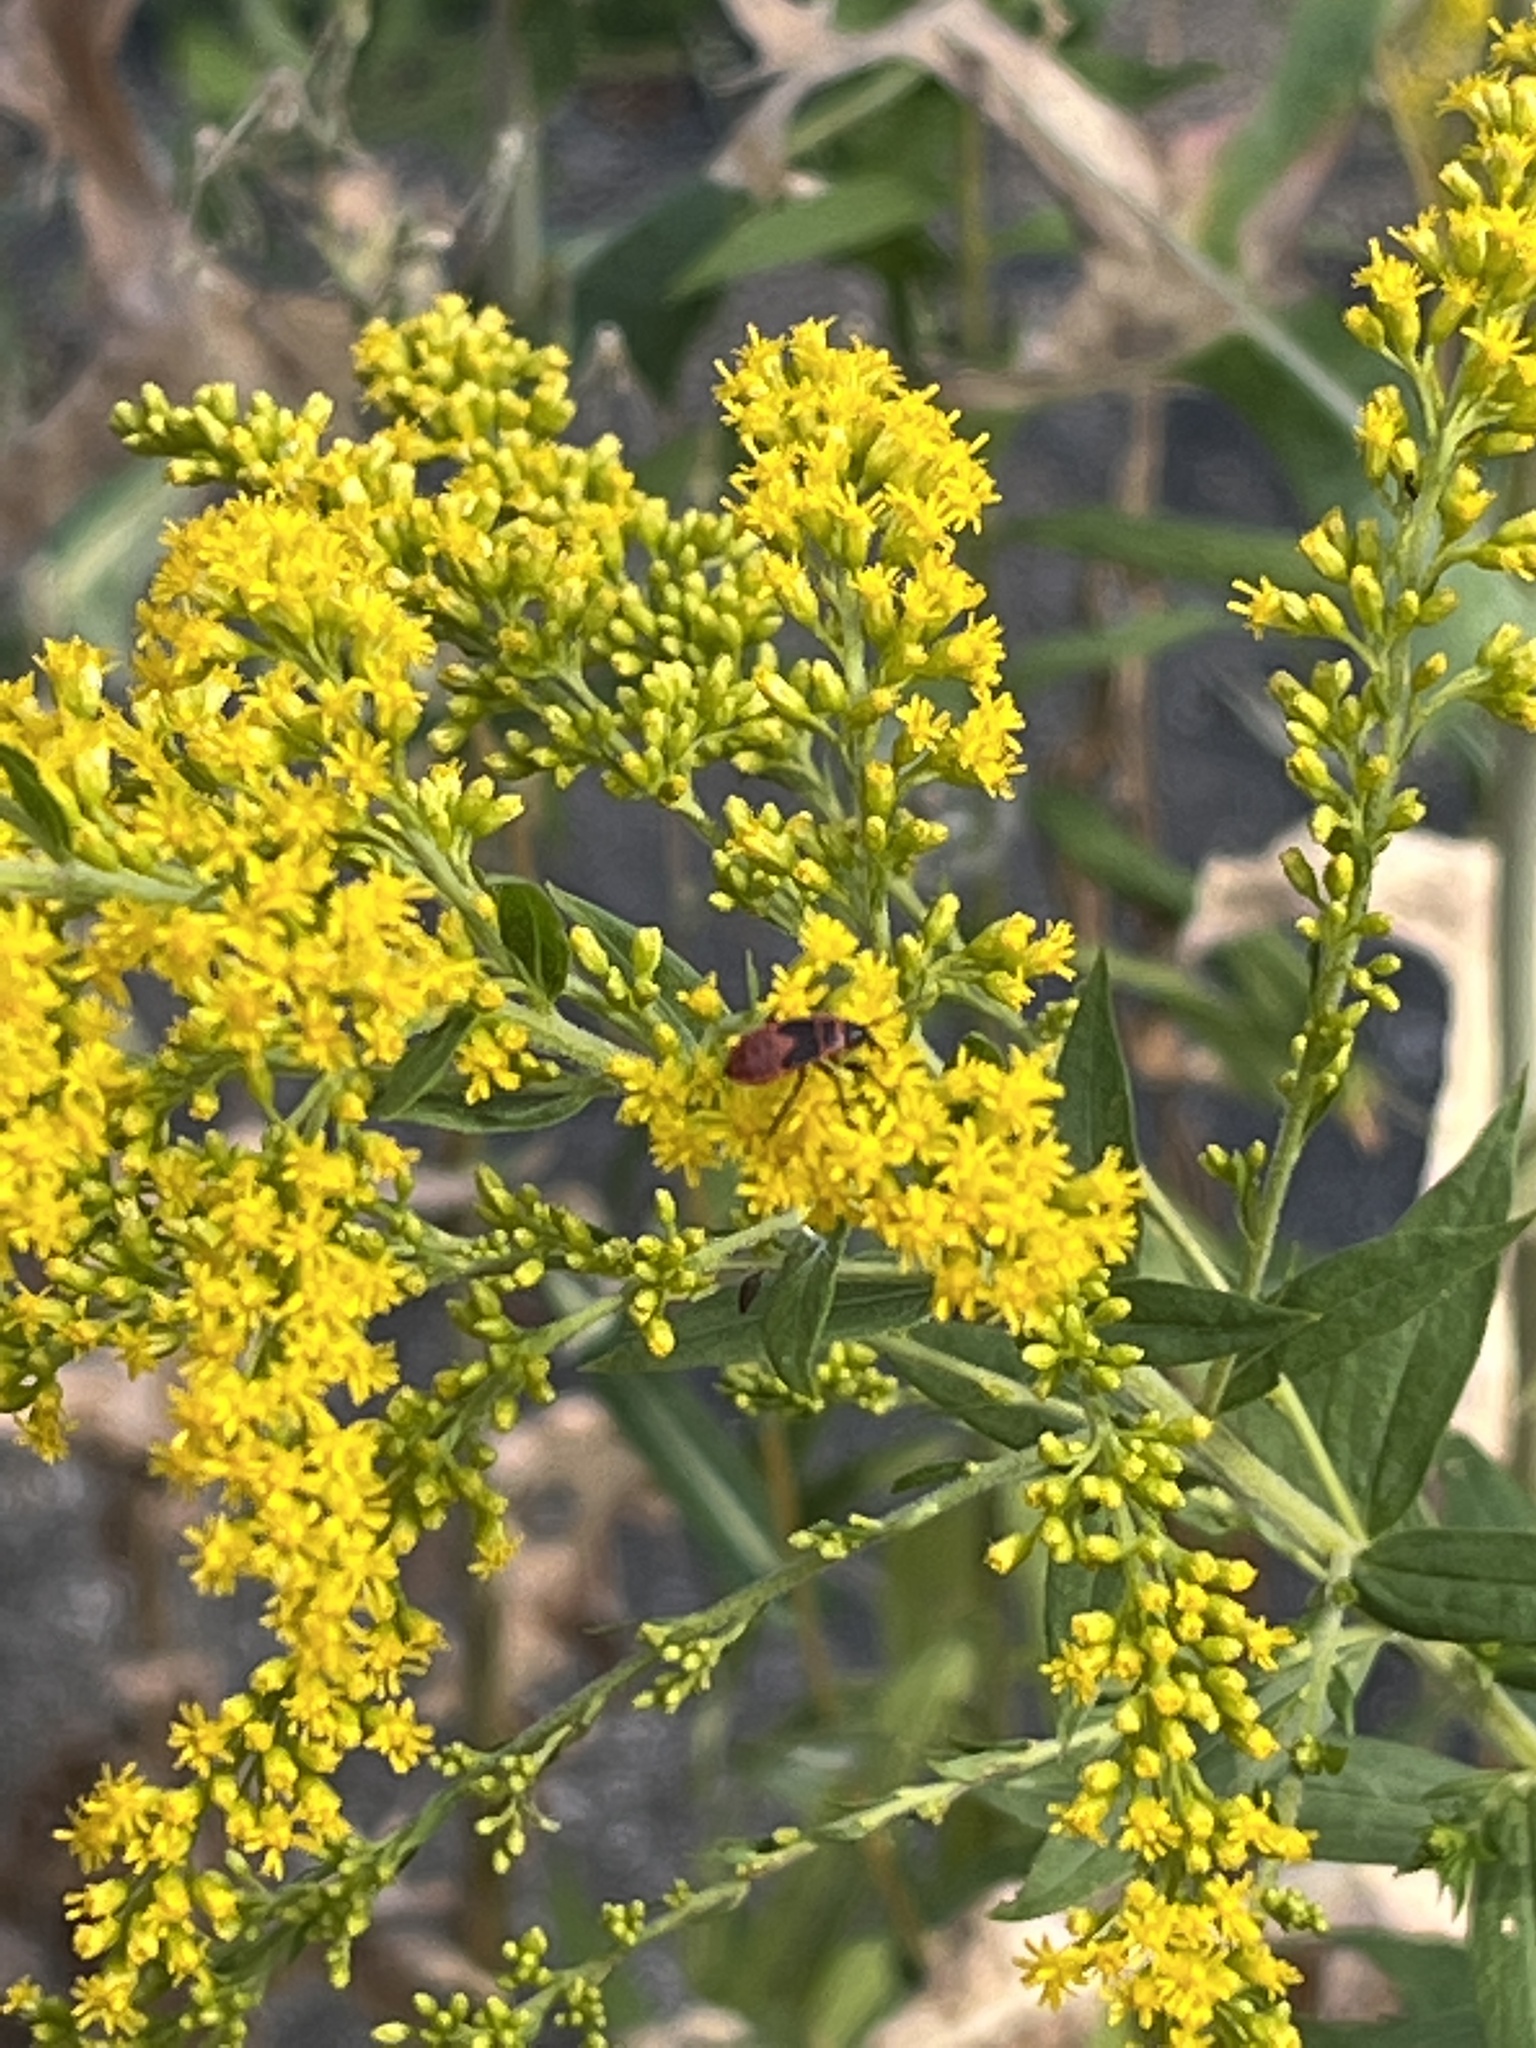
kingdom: Animalia
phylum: Arthropoda
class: Insecta
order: Hemiptera
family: Pyrrhocoridae
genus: Pyrrhocoris
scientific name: Pyrrhocoris apterus
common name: Firebug
